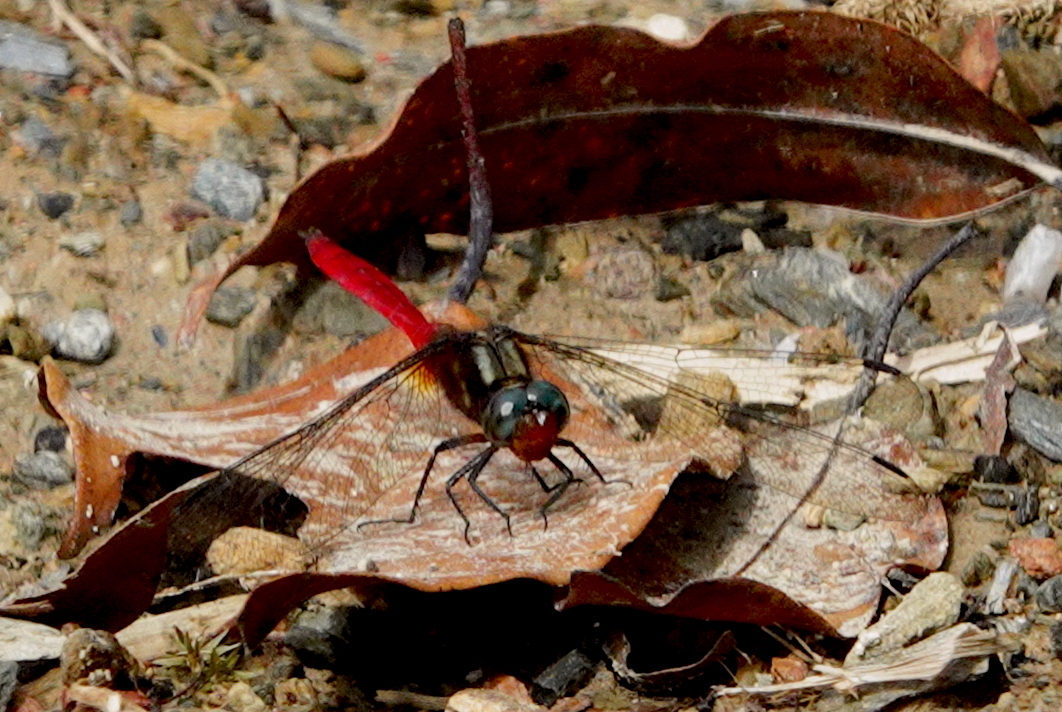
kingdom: Animalia
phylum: Arthropoda
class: Insecta
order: Odonata
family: Libellulidae
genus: Orthetrum
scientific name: Orthetrum villosovittatum
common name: Firery skimmer
